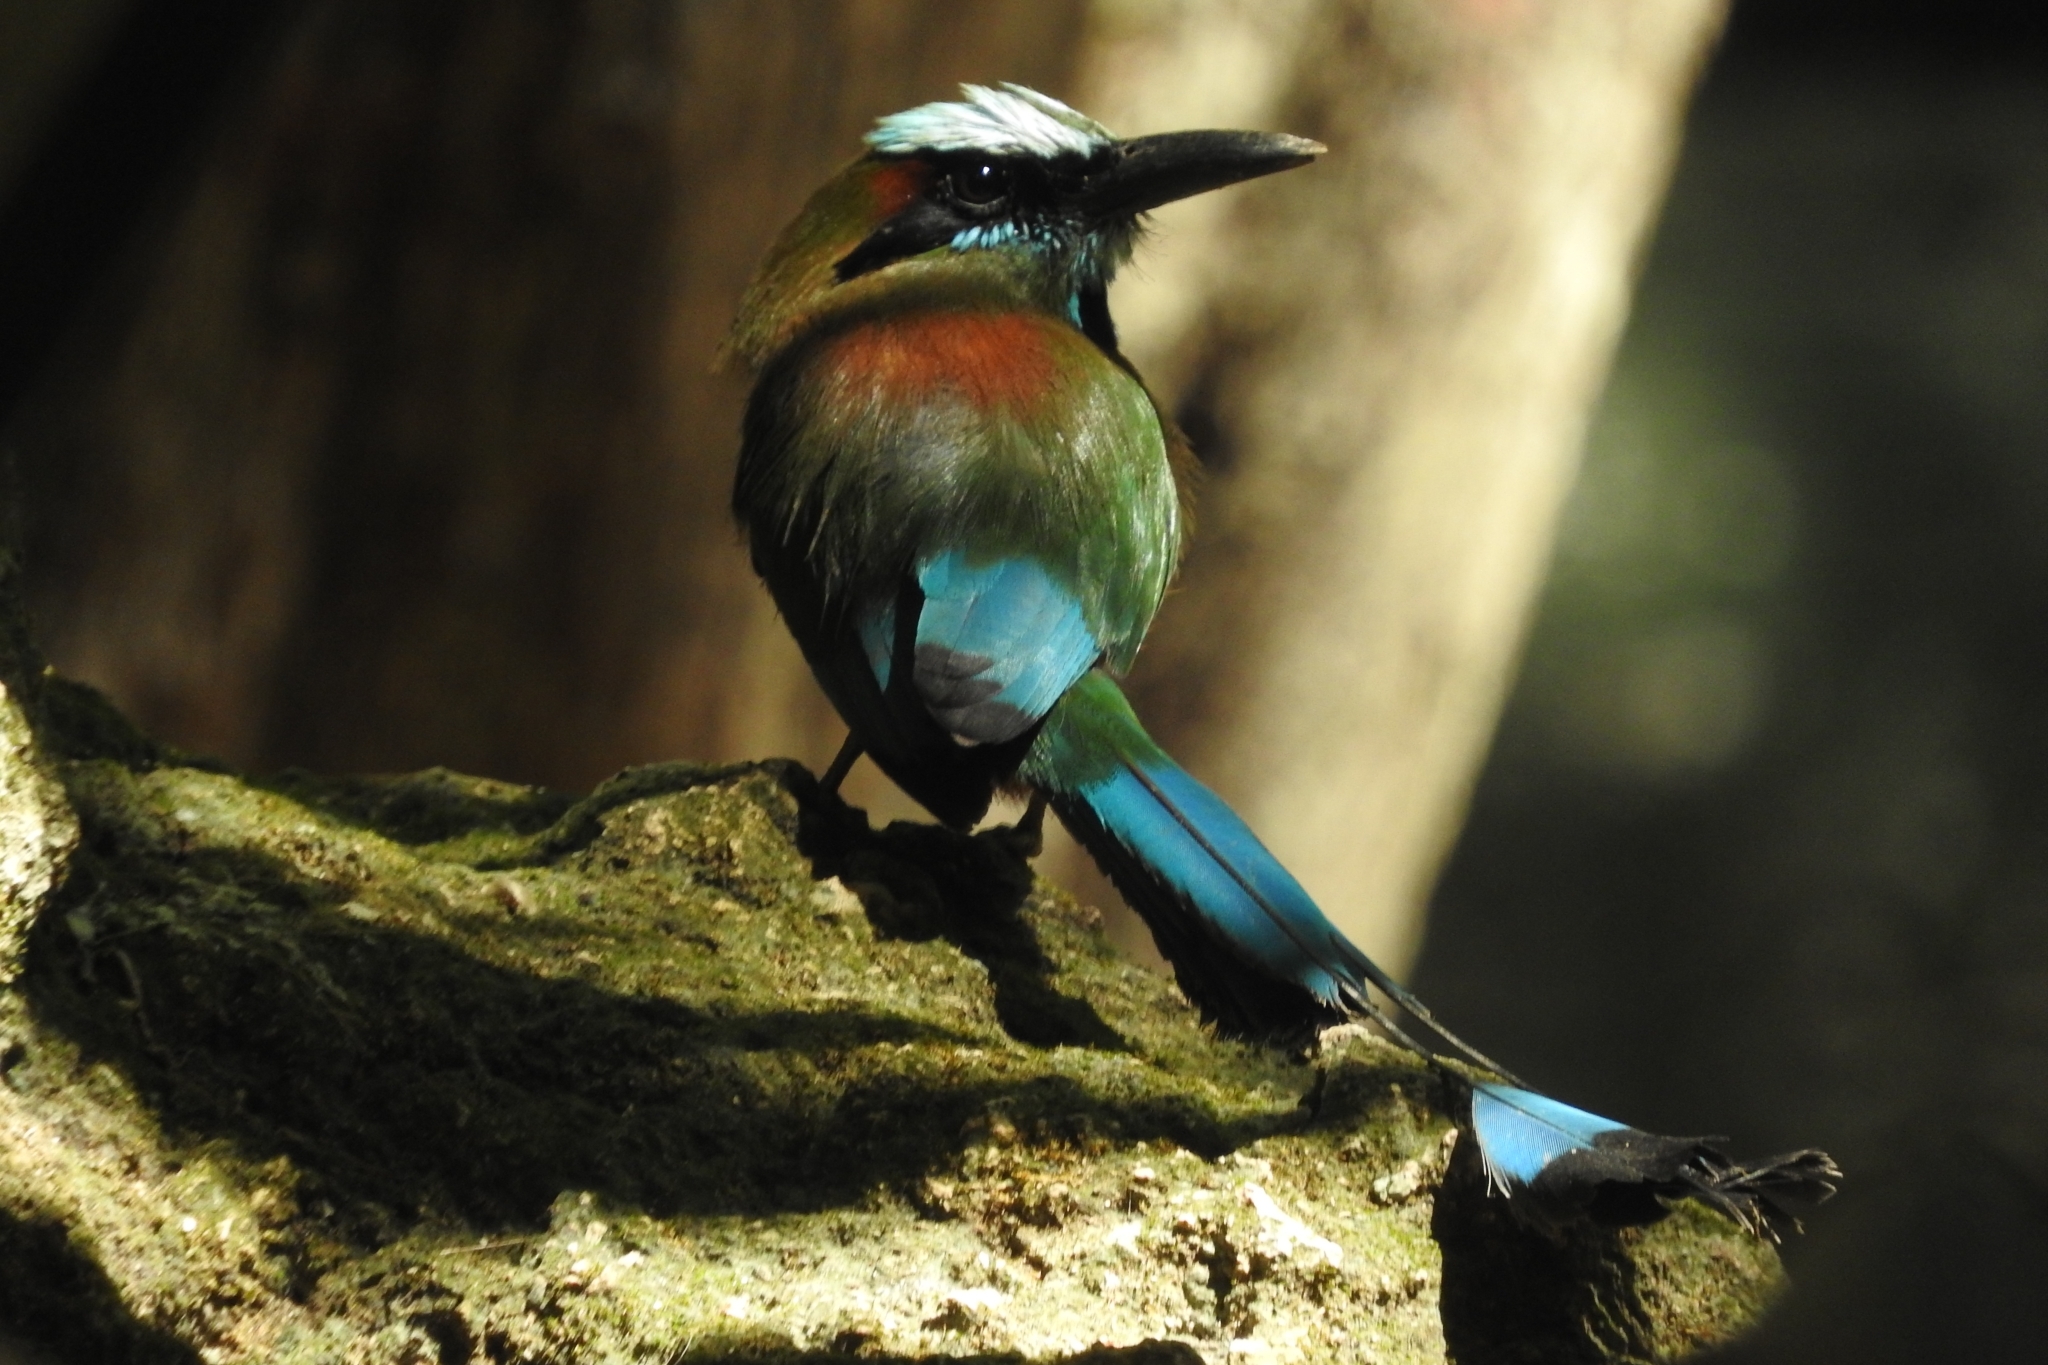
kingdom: Animalia
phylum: Chordata
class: Aves
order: Coraciiformes
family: Momotidae
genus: Eumomota
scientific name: Eumomota superciliosa
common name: Turquoise-browed motmot
